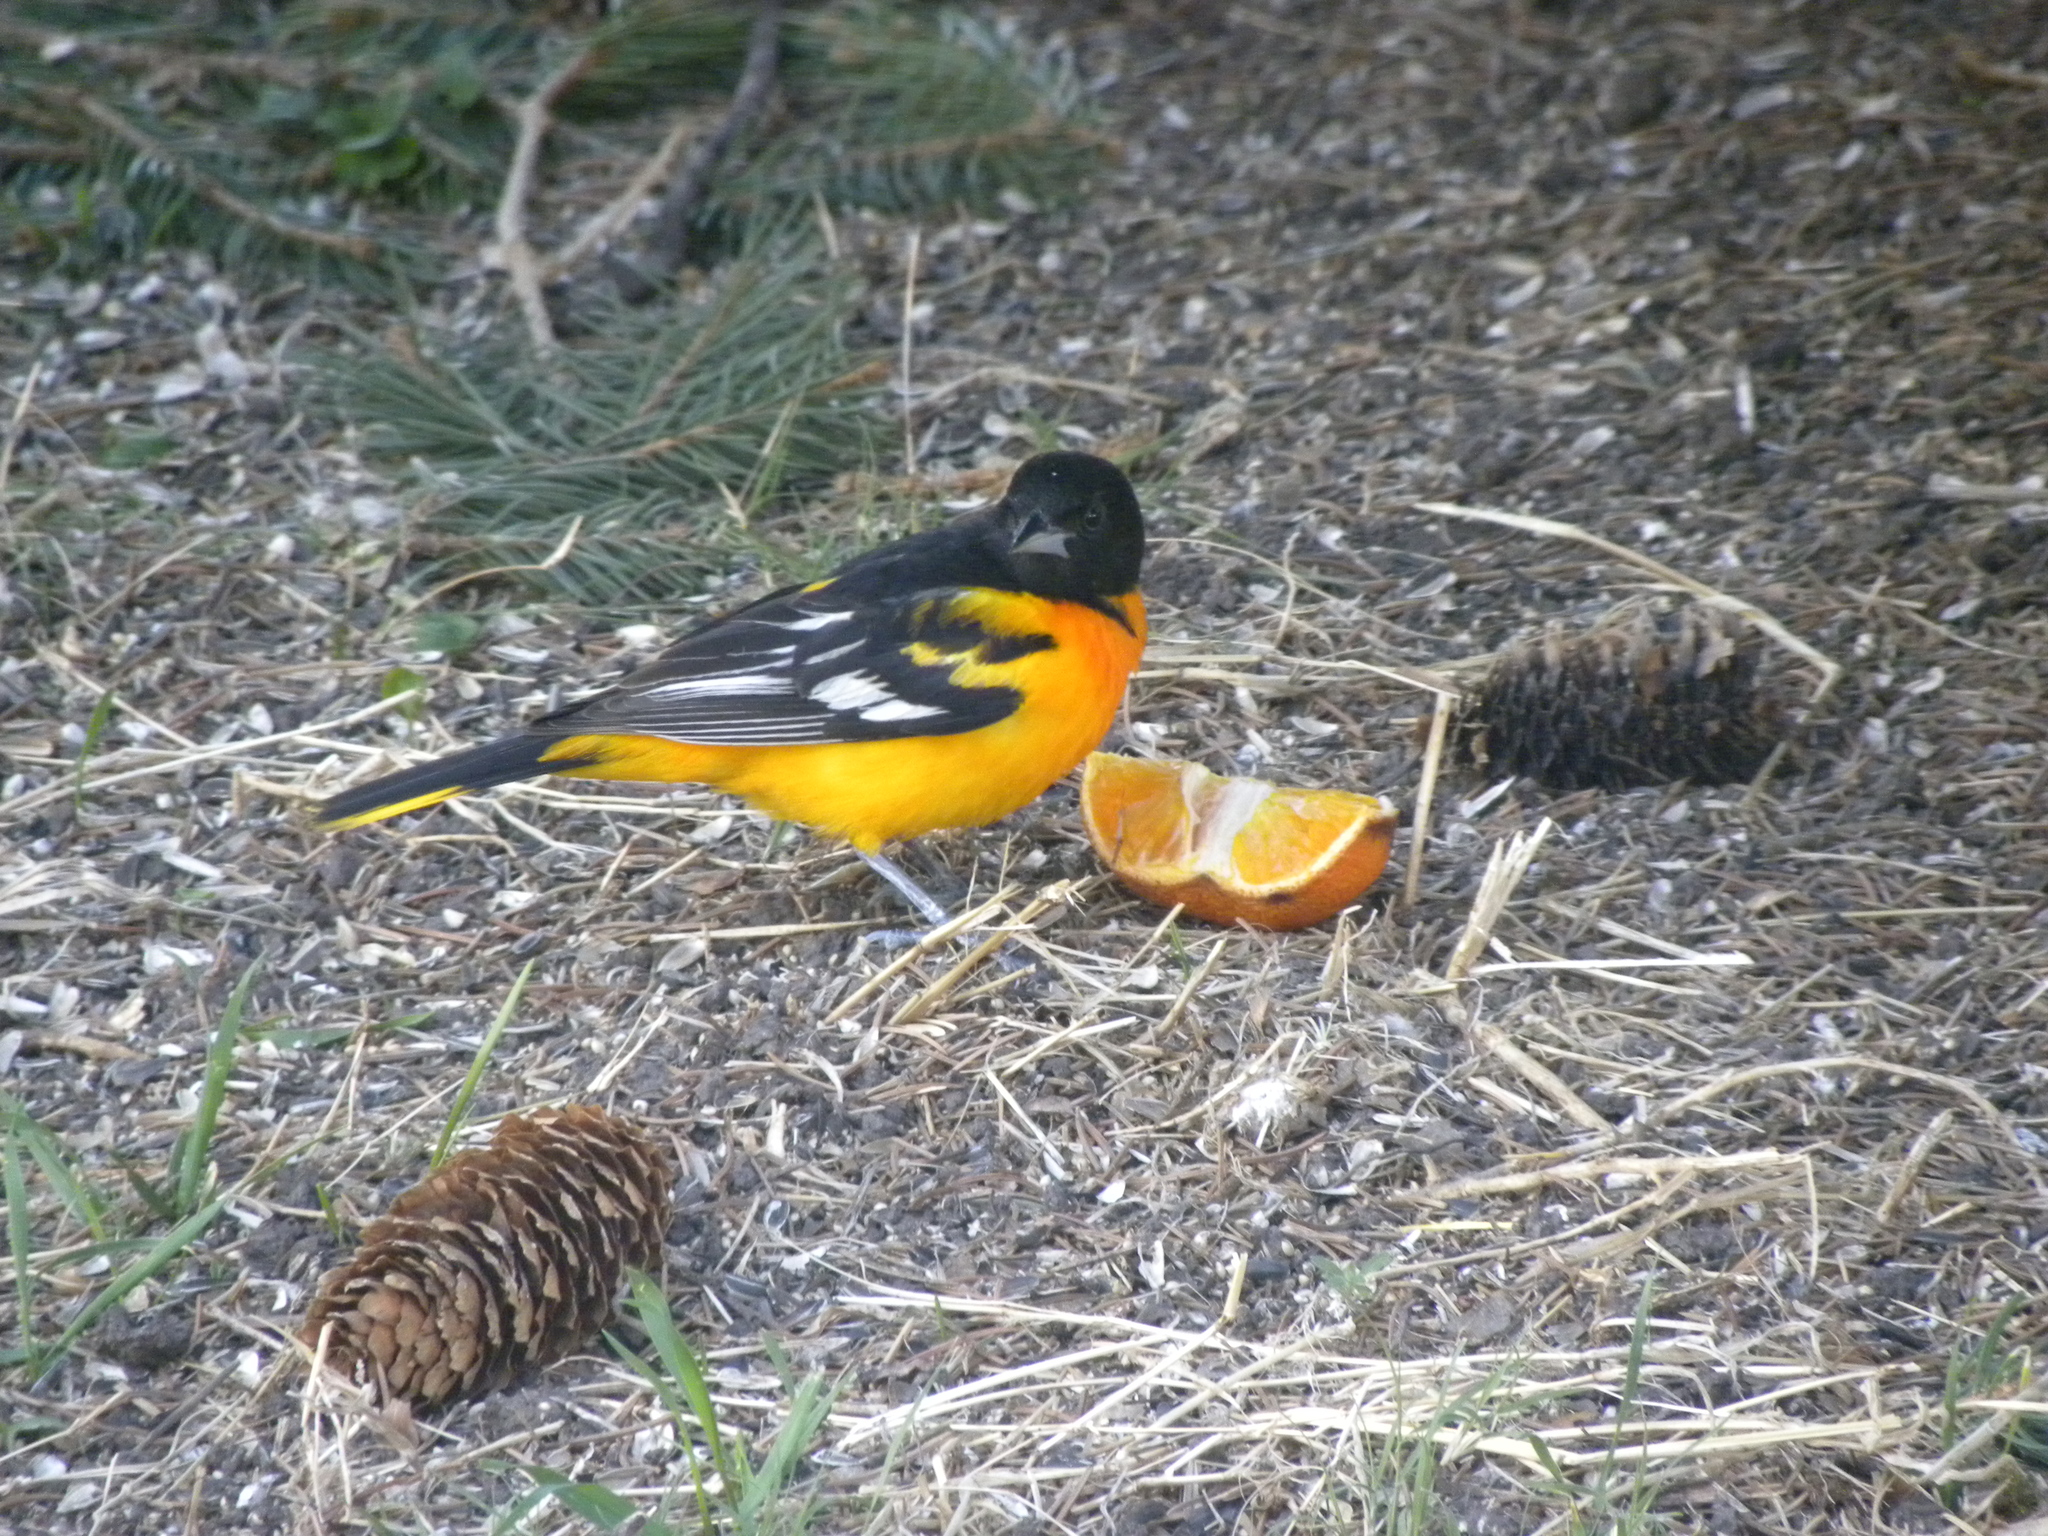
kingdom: Animalia
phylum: Chordata
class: Aves
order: Passeriformes
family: Icteridae
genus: Icterus
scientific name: Icterus galbula
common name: Baltimore oriole
